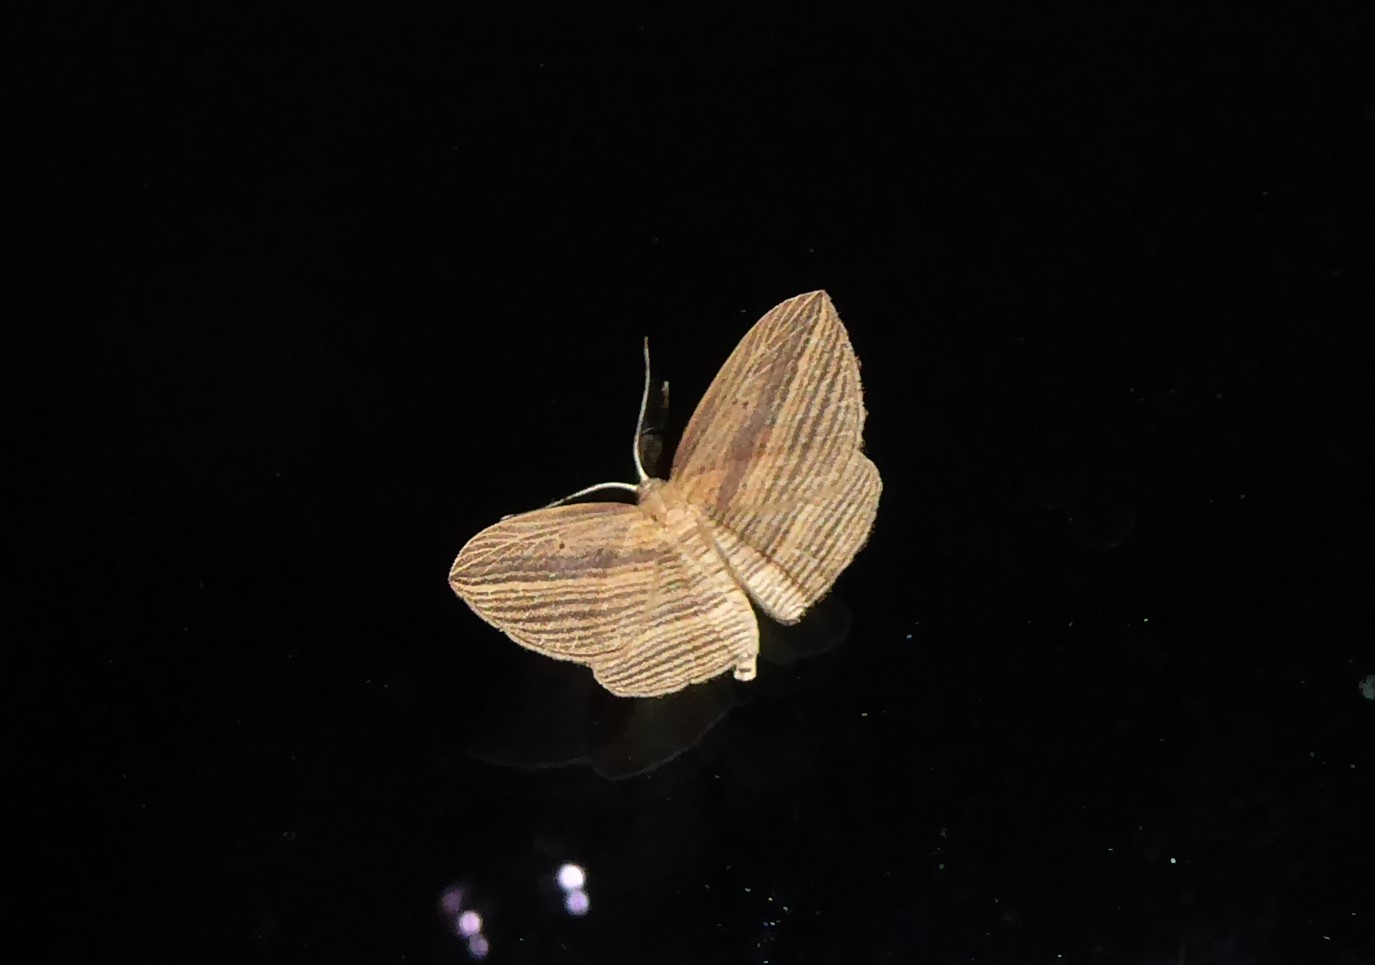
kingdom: Animalia
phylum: Arthropoda
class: Insecta
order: Lepidoptera
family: Geometridae
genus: Epiphryne
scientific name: Epiphryne verriculata
